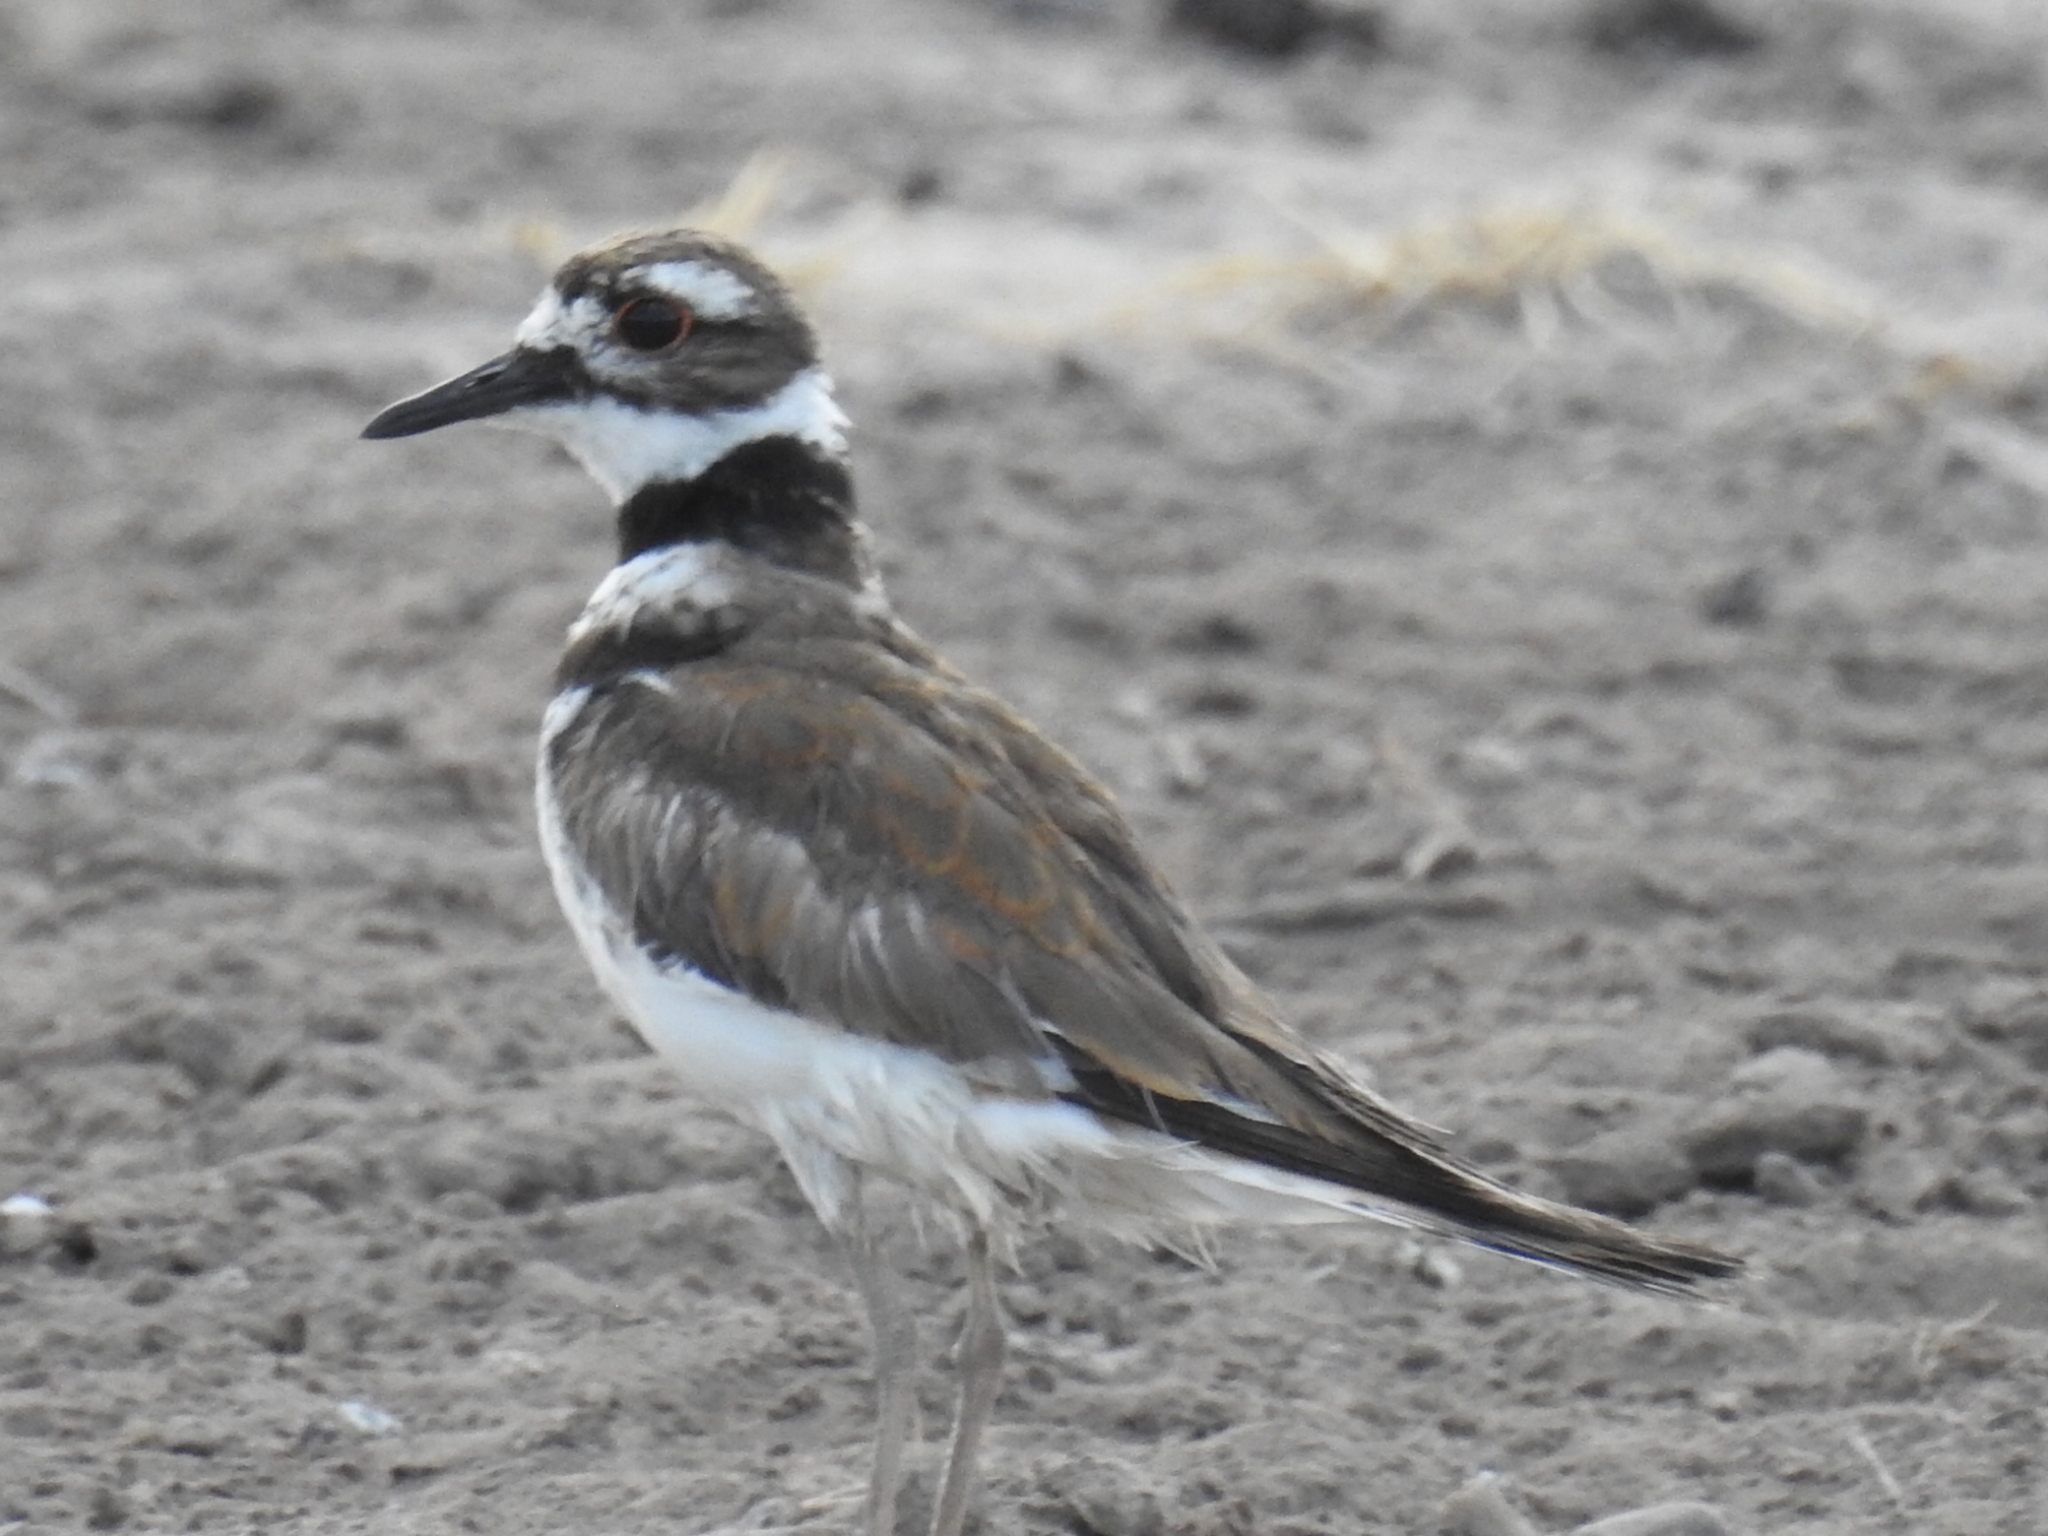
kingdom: Animalia
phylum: Chordata
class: Aves
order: Charadriiformes
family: Charadriidae
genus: Charadrius
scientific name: Charadrius vociferus
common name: Killdeer
